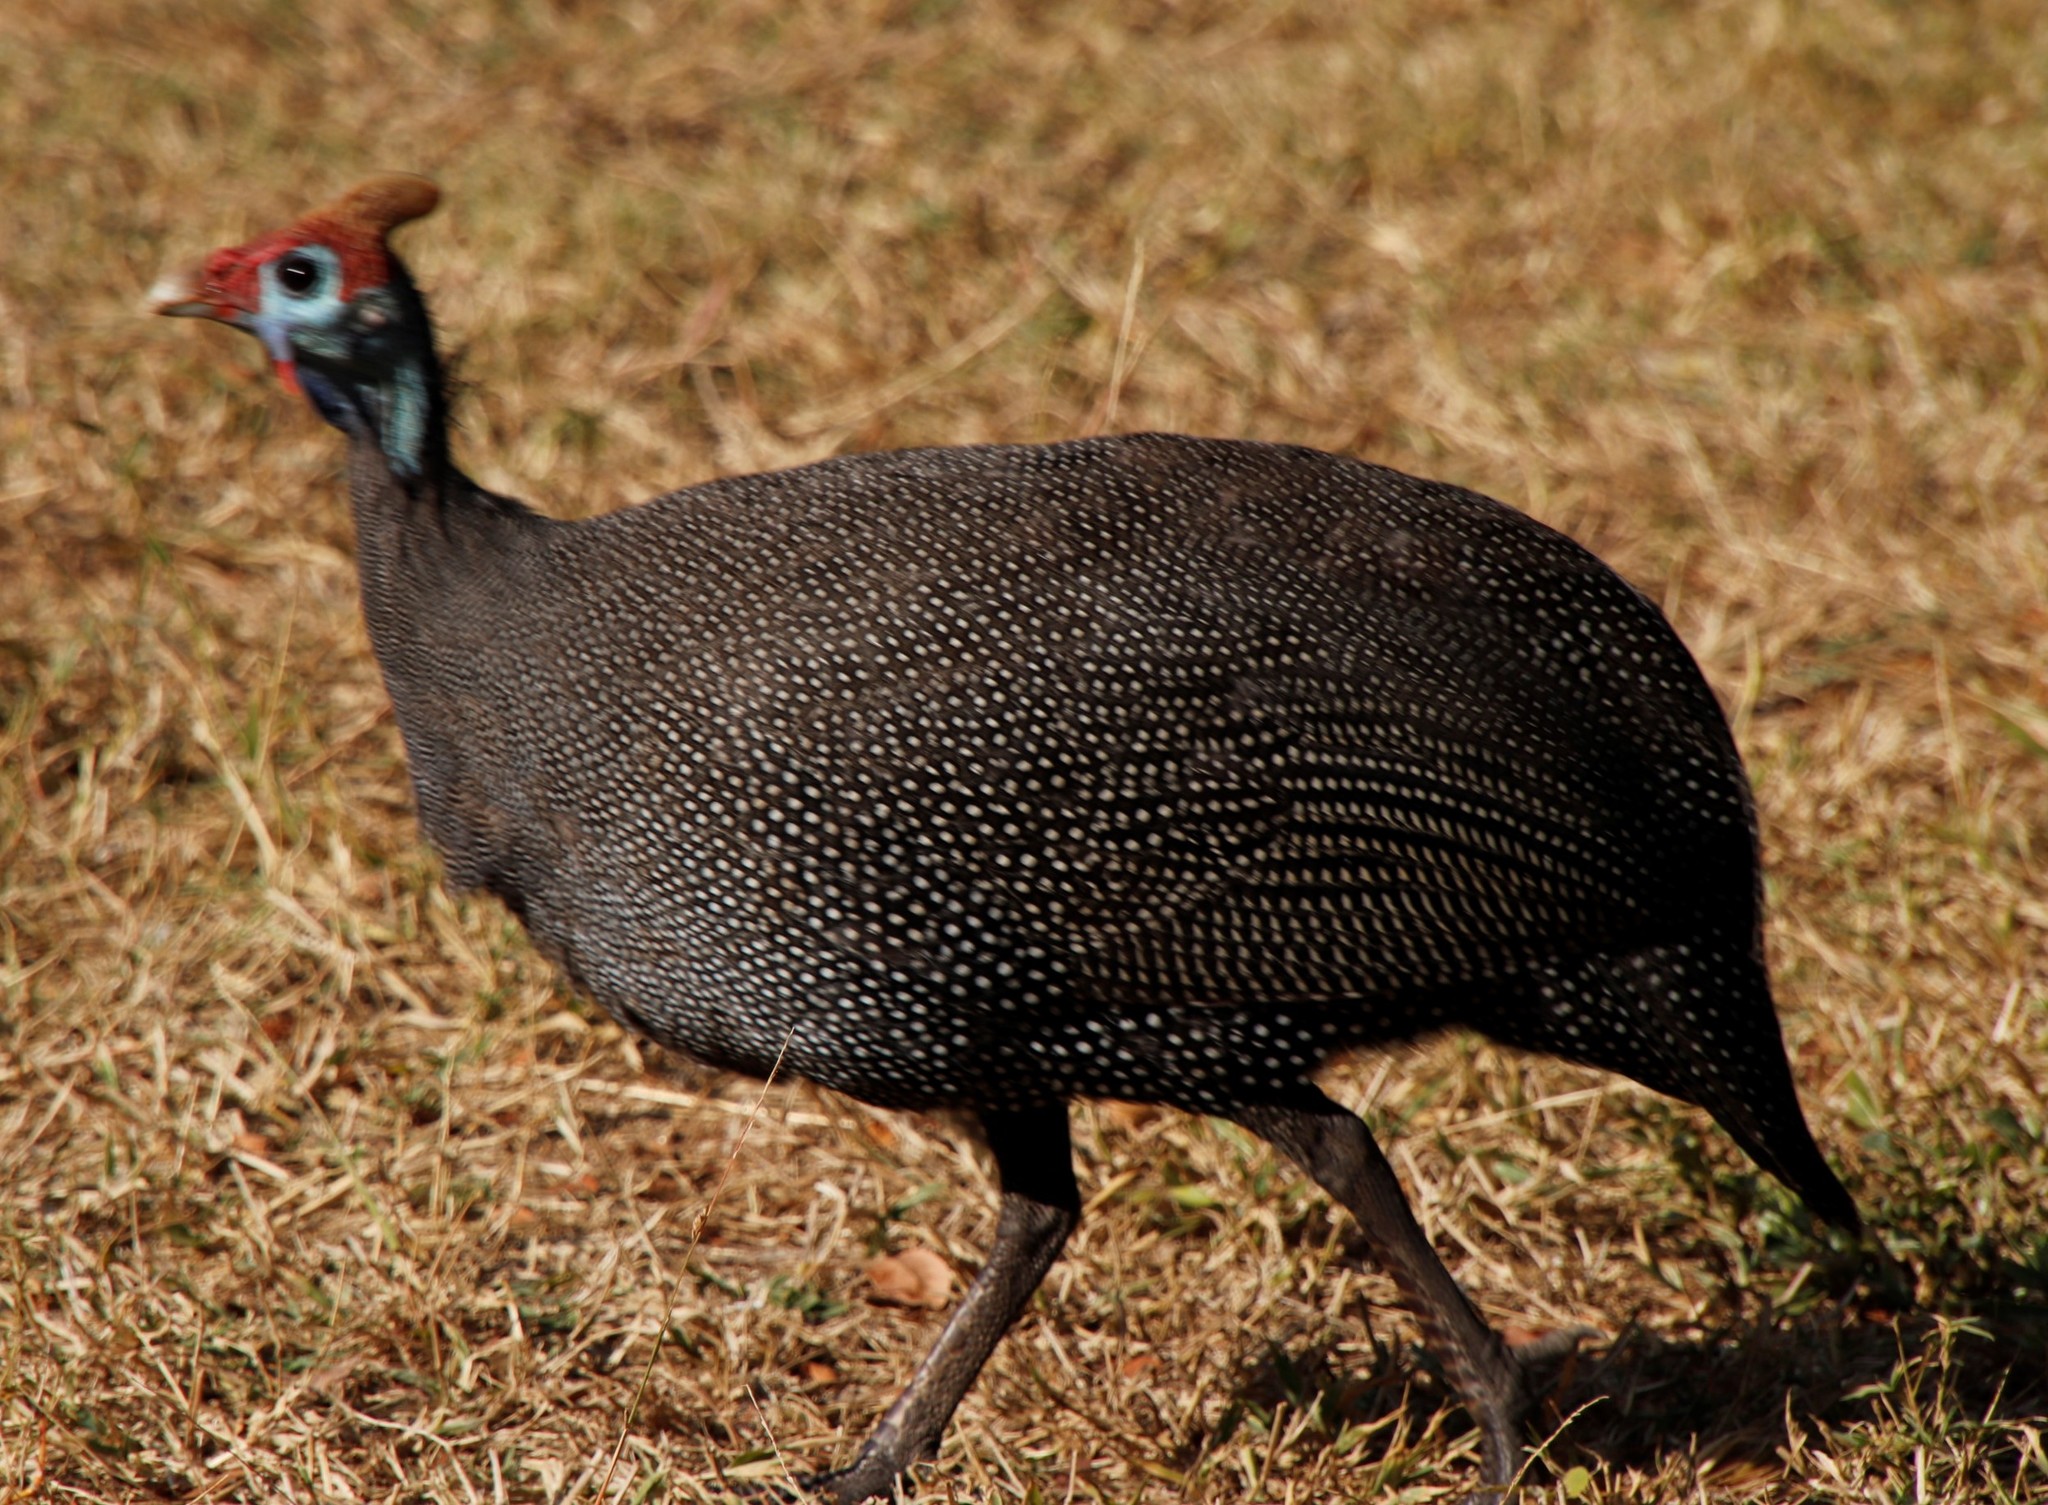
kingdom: Animalia
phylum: Chordata
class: Aves
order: Galliformes
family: Numididae
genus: Numida
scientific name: Numida meleagris
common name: Helmeted guineafowl
